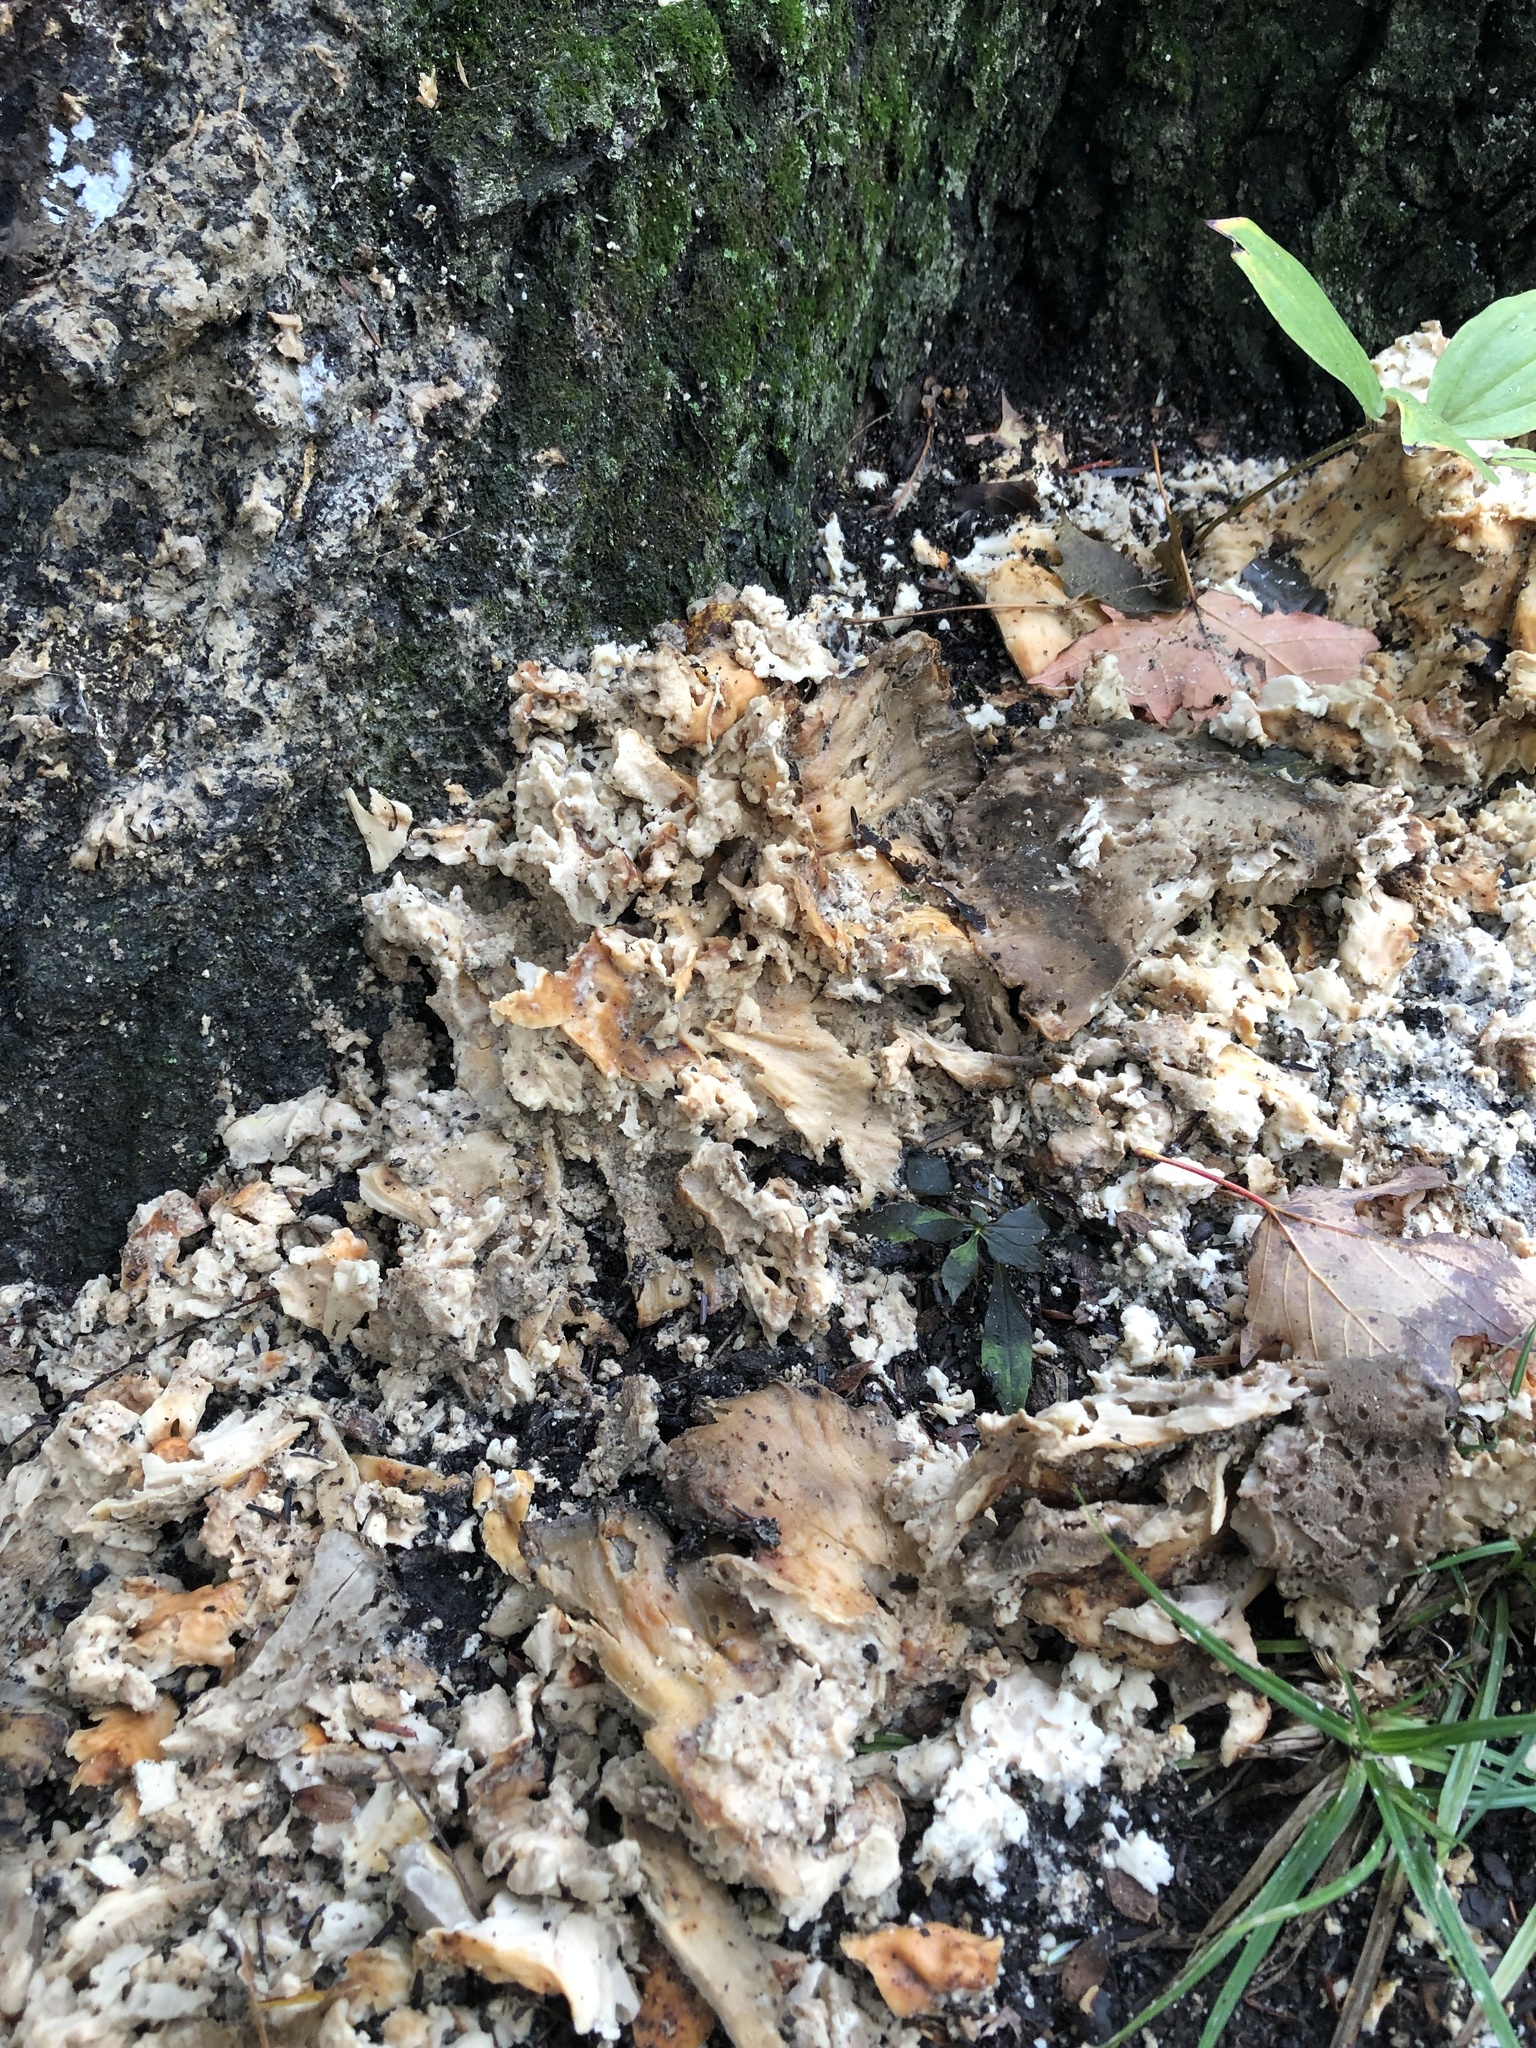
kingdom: Fungi
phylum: Basidiomycota
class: Agaricomycetes
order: Polyporales
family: Laetiporaceae
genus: Laetiporus
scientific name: Laetiporus sulphureus
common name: Chicken of the woods
